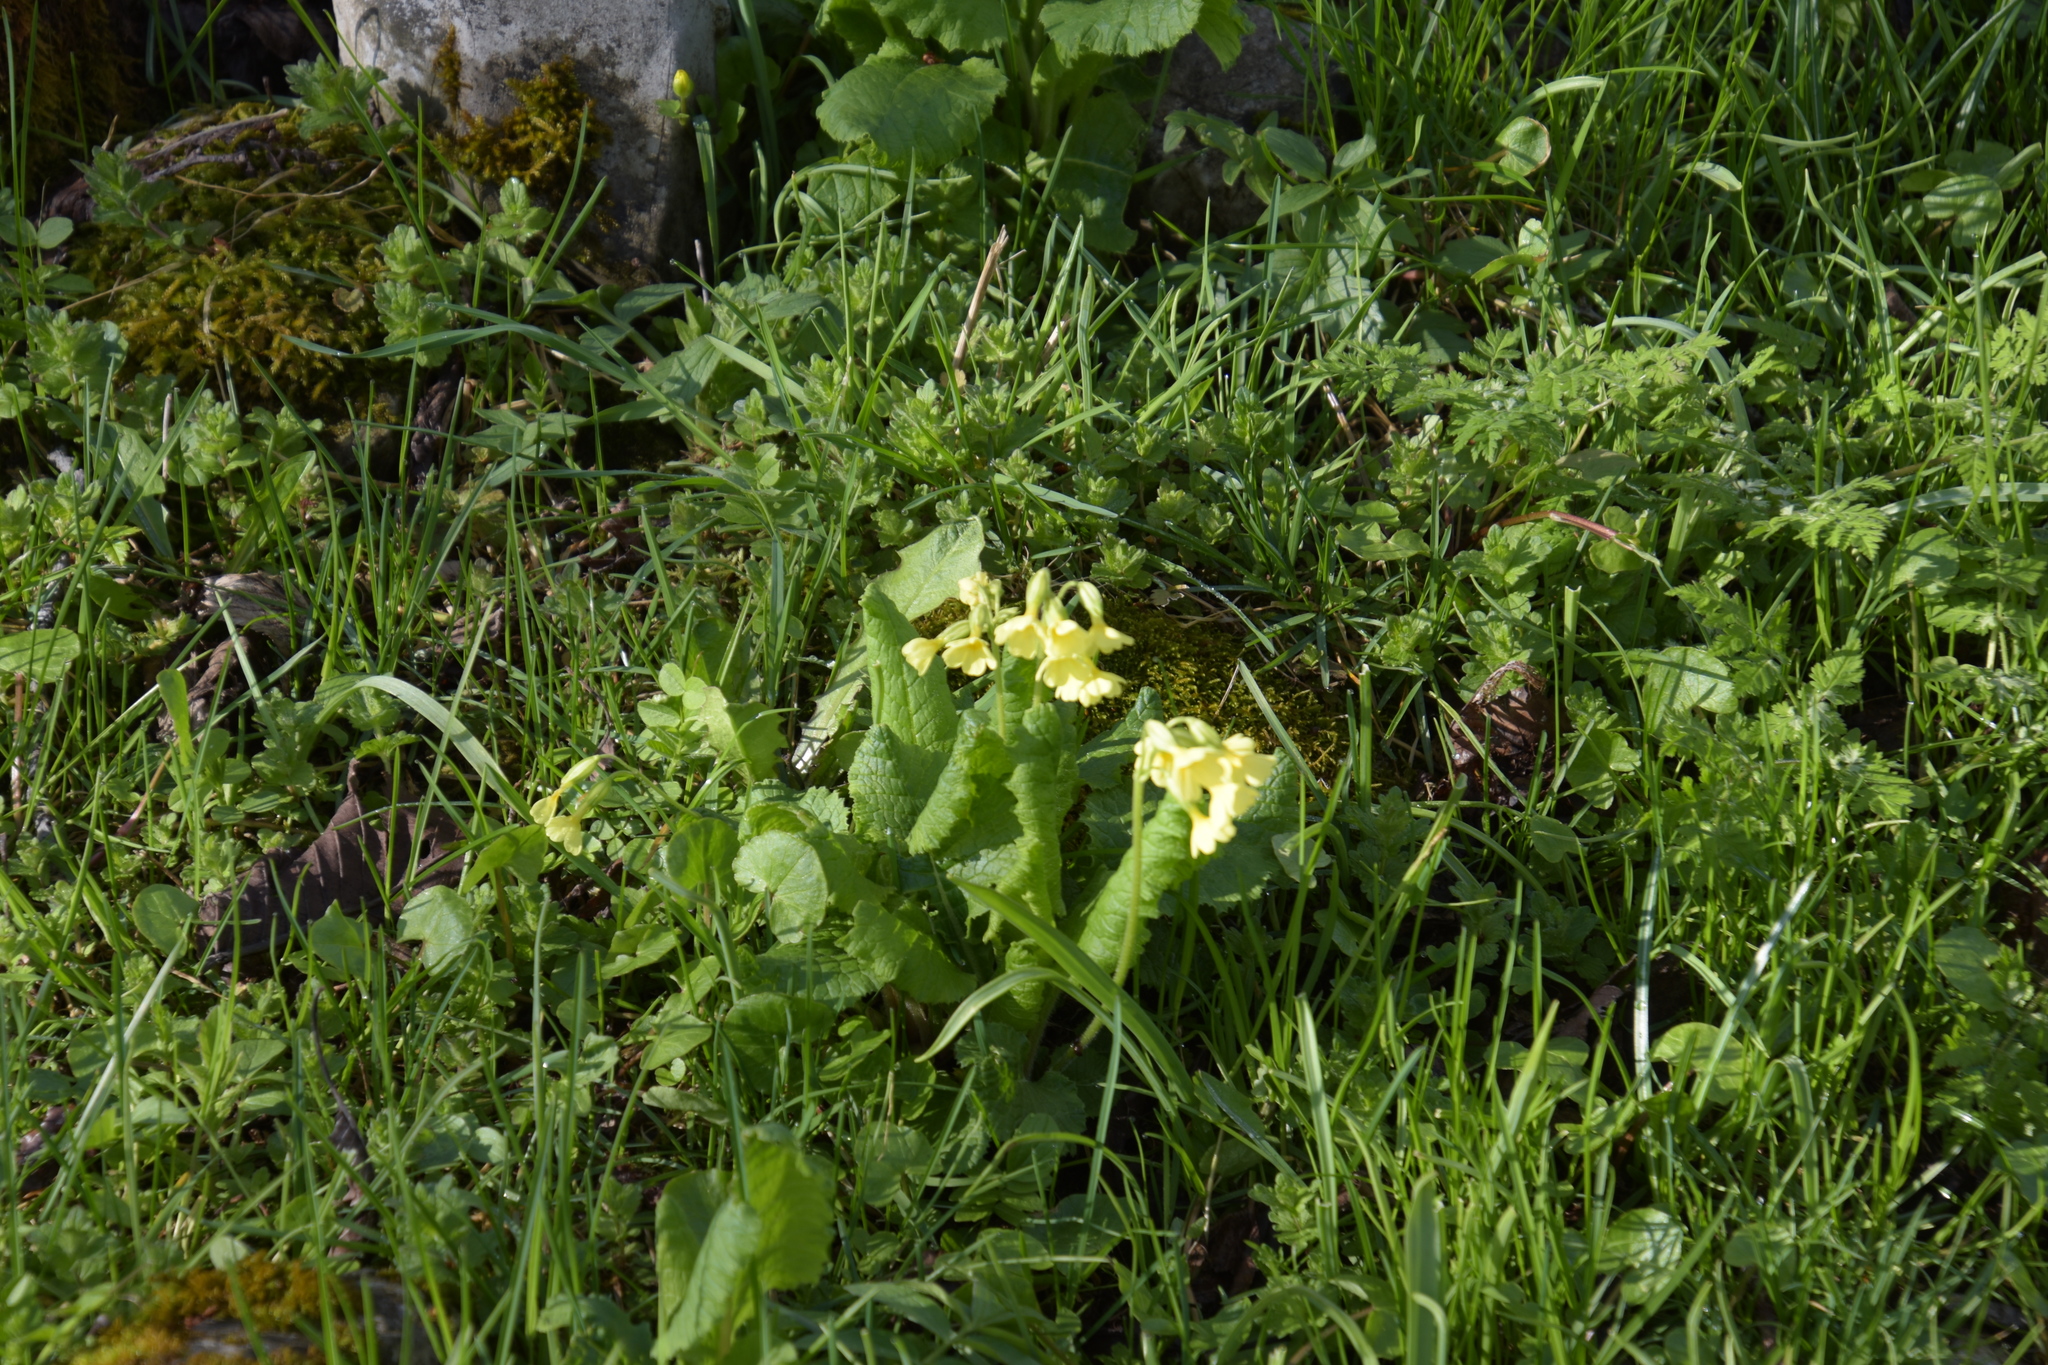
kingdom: Plantae
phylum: Tracheophyta
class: Magnoliopsida
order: Ericales
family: Primulaceae
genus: Primula
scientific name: Primula elatior
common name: Oxlip
